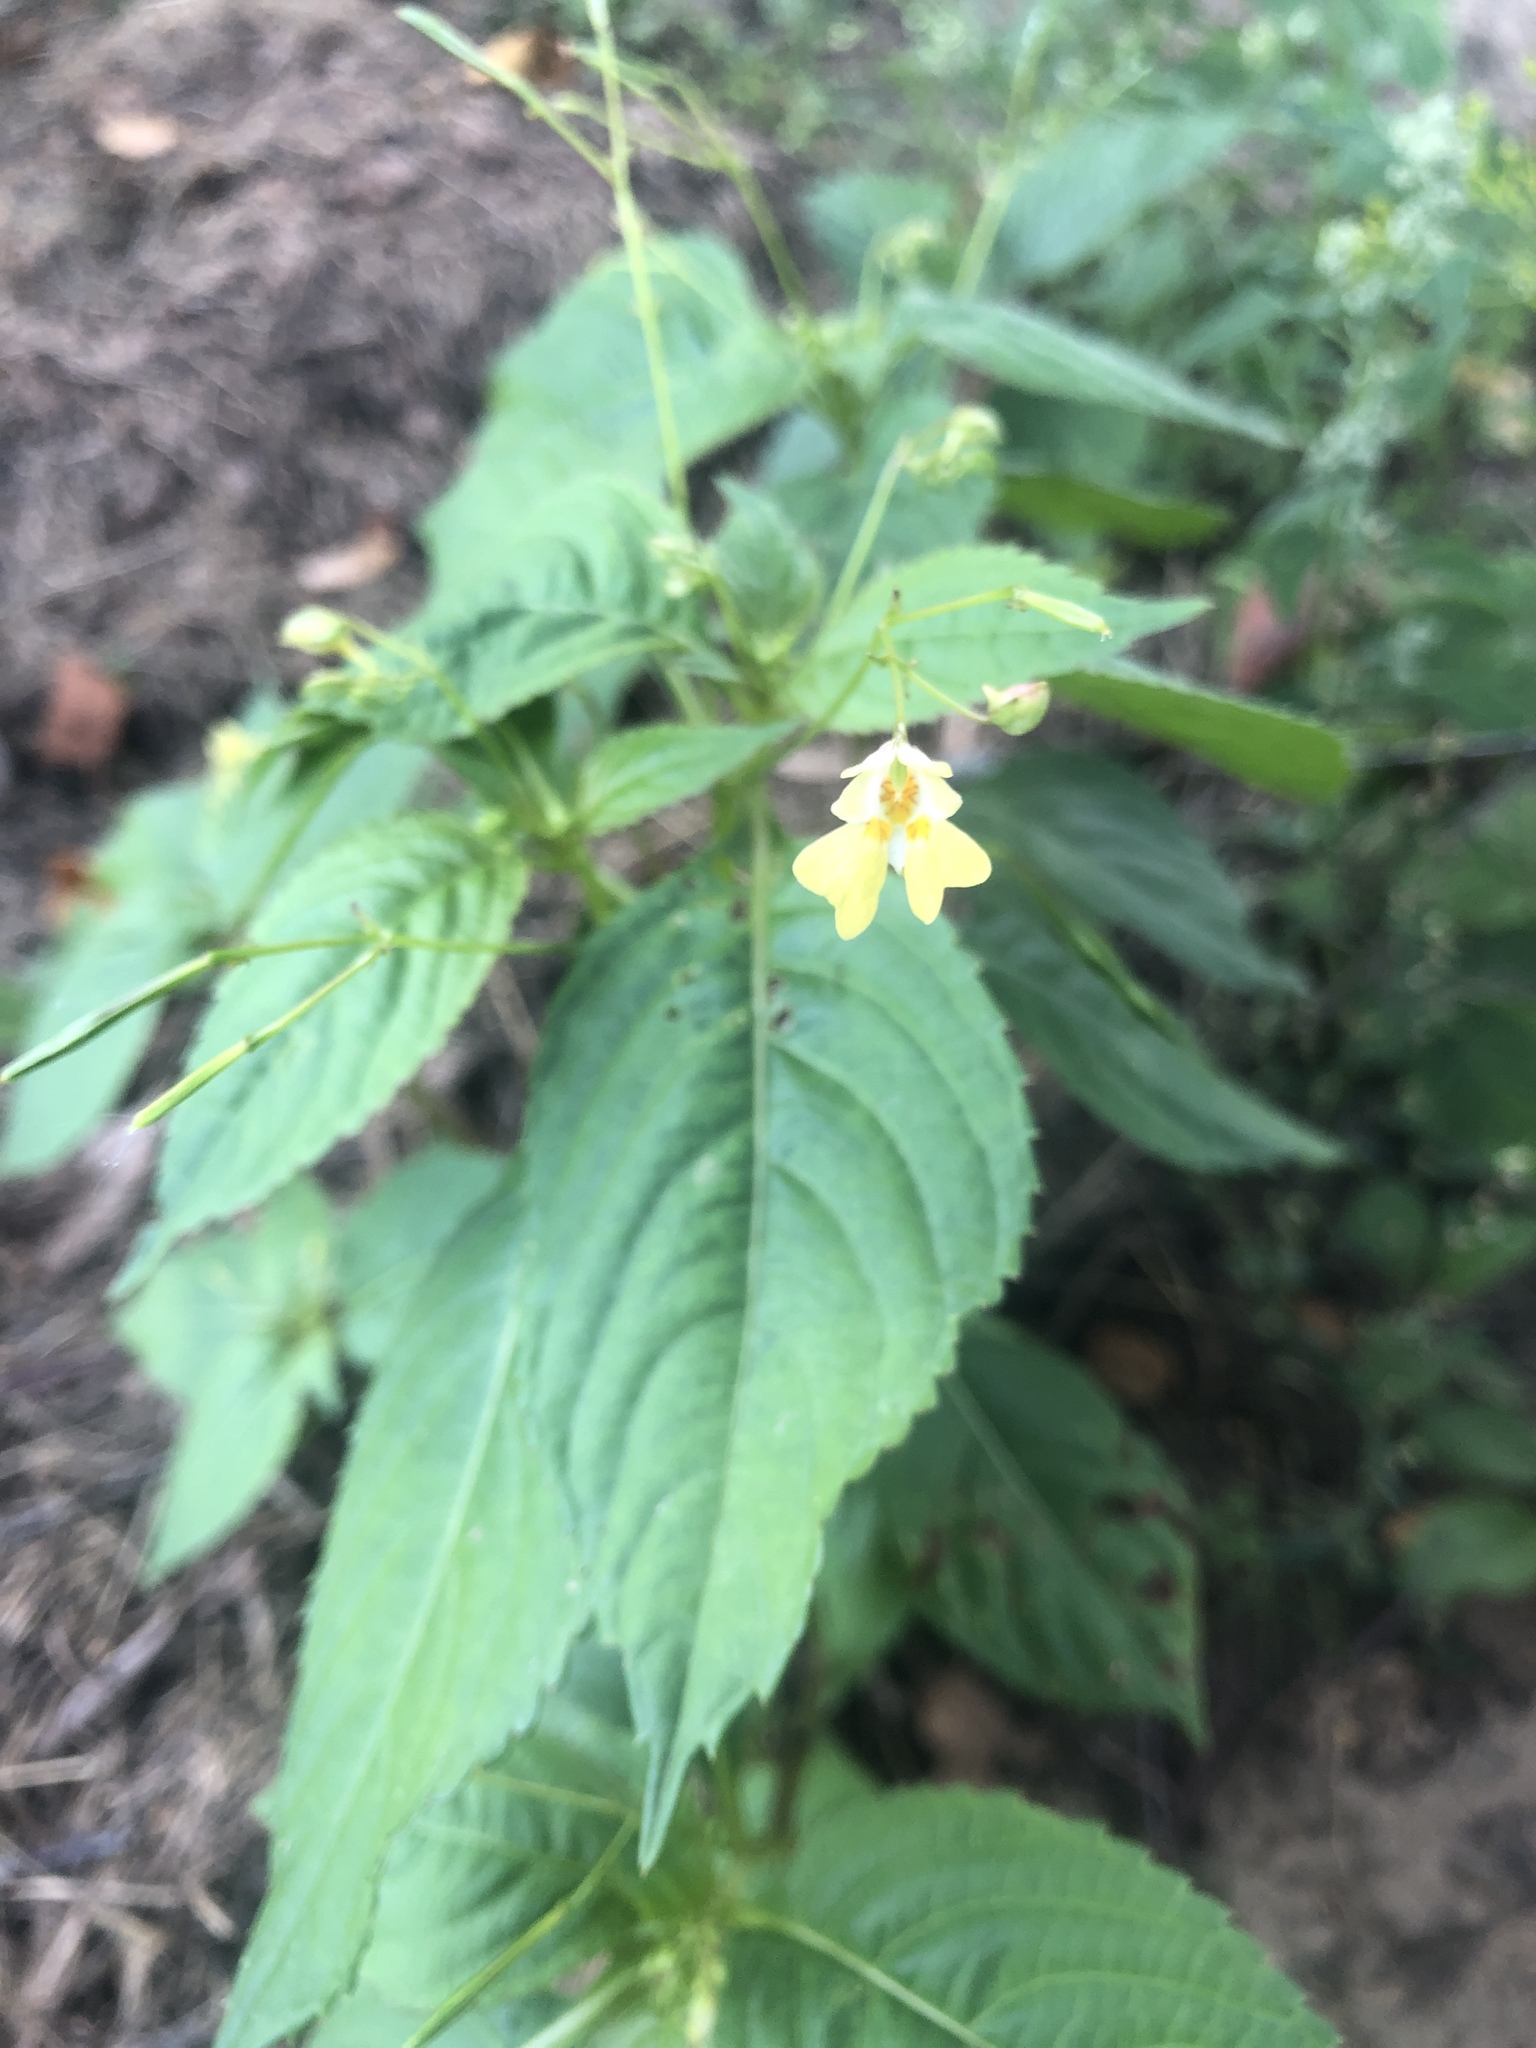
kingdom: Plantae
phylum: Tracheophyta
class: Magnoliopsida
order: Ericales
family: Balsaminaceae
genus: Impatiens
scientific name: Impatiens parviflora
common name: Small balsam
